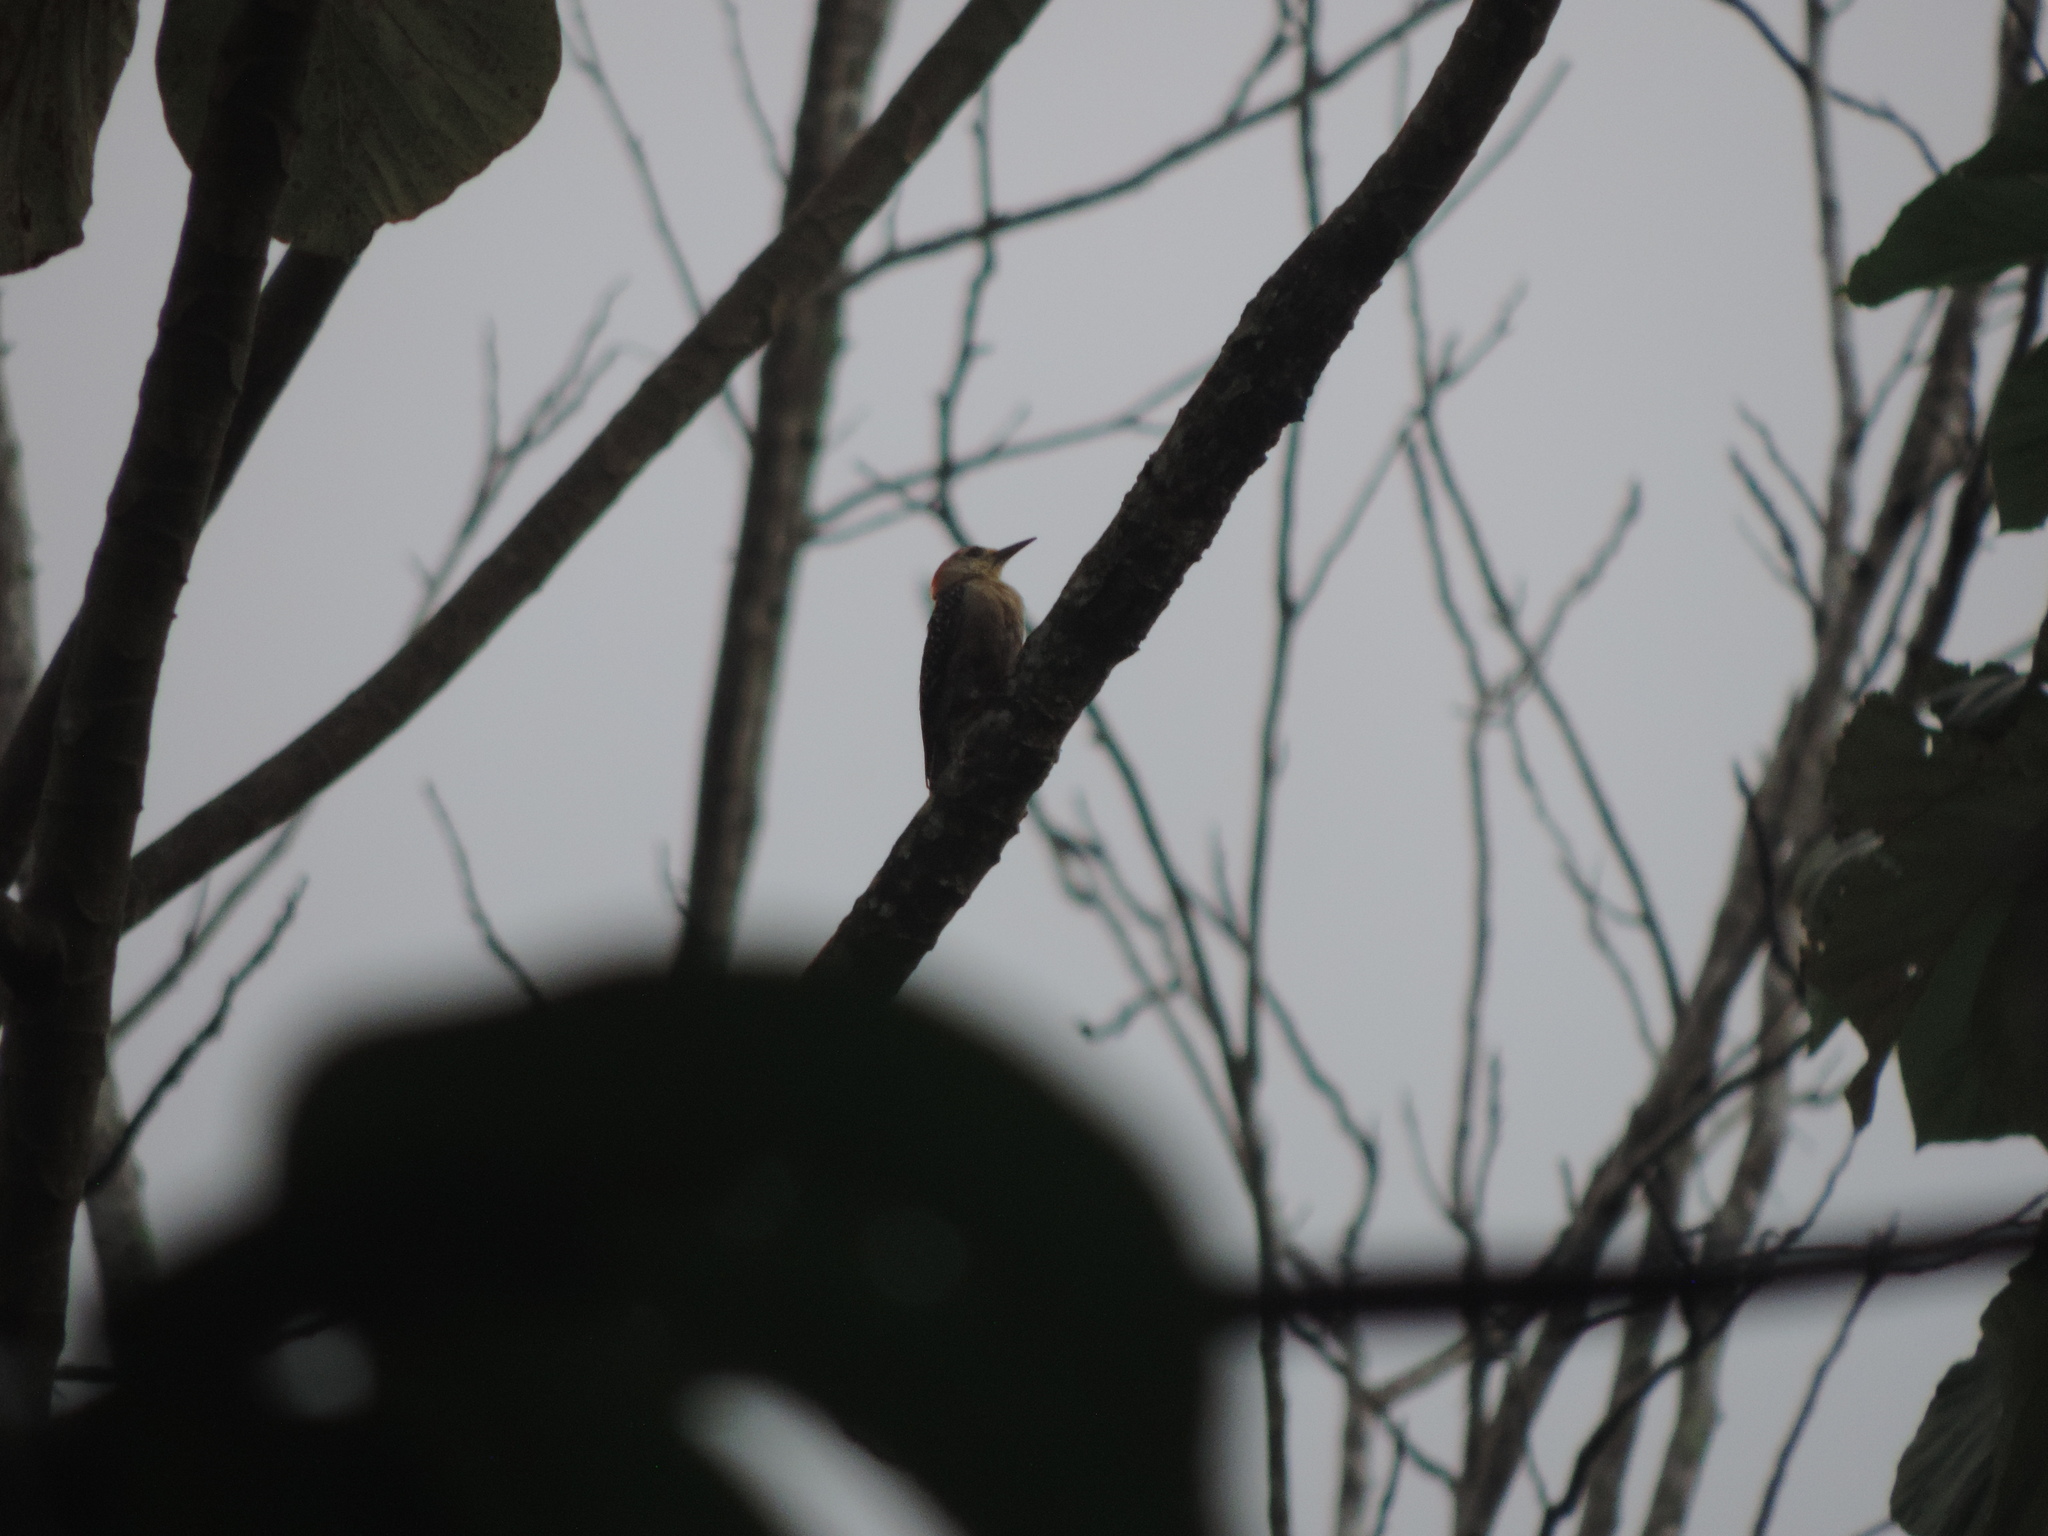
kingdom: Animalia
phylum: Chordata
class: Aves
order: Piciformes
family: Picidae
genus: Melanerpes
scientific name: Melanerpes rubricapillus
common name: Red-crowned woodpecker
